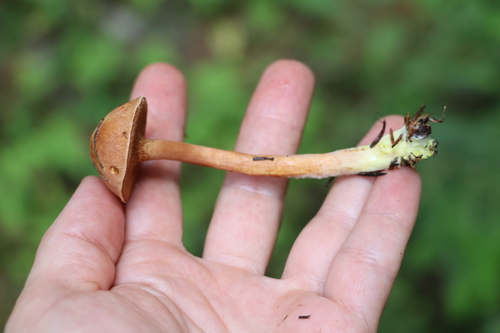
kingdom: Fungi
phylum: Basidiomycota
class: Agaricomycetes
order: Boletales
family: Boletaceae
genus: Chalciporus
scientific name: Chalciporus piperatus
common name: Peppery bolete
